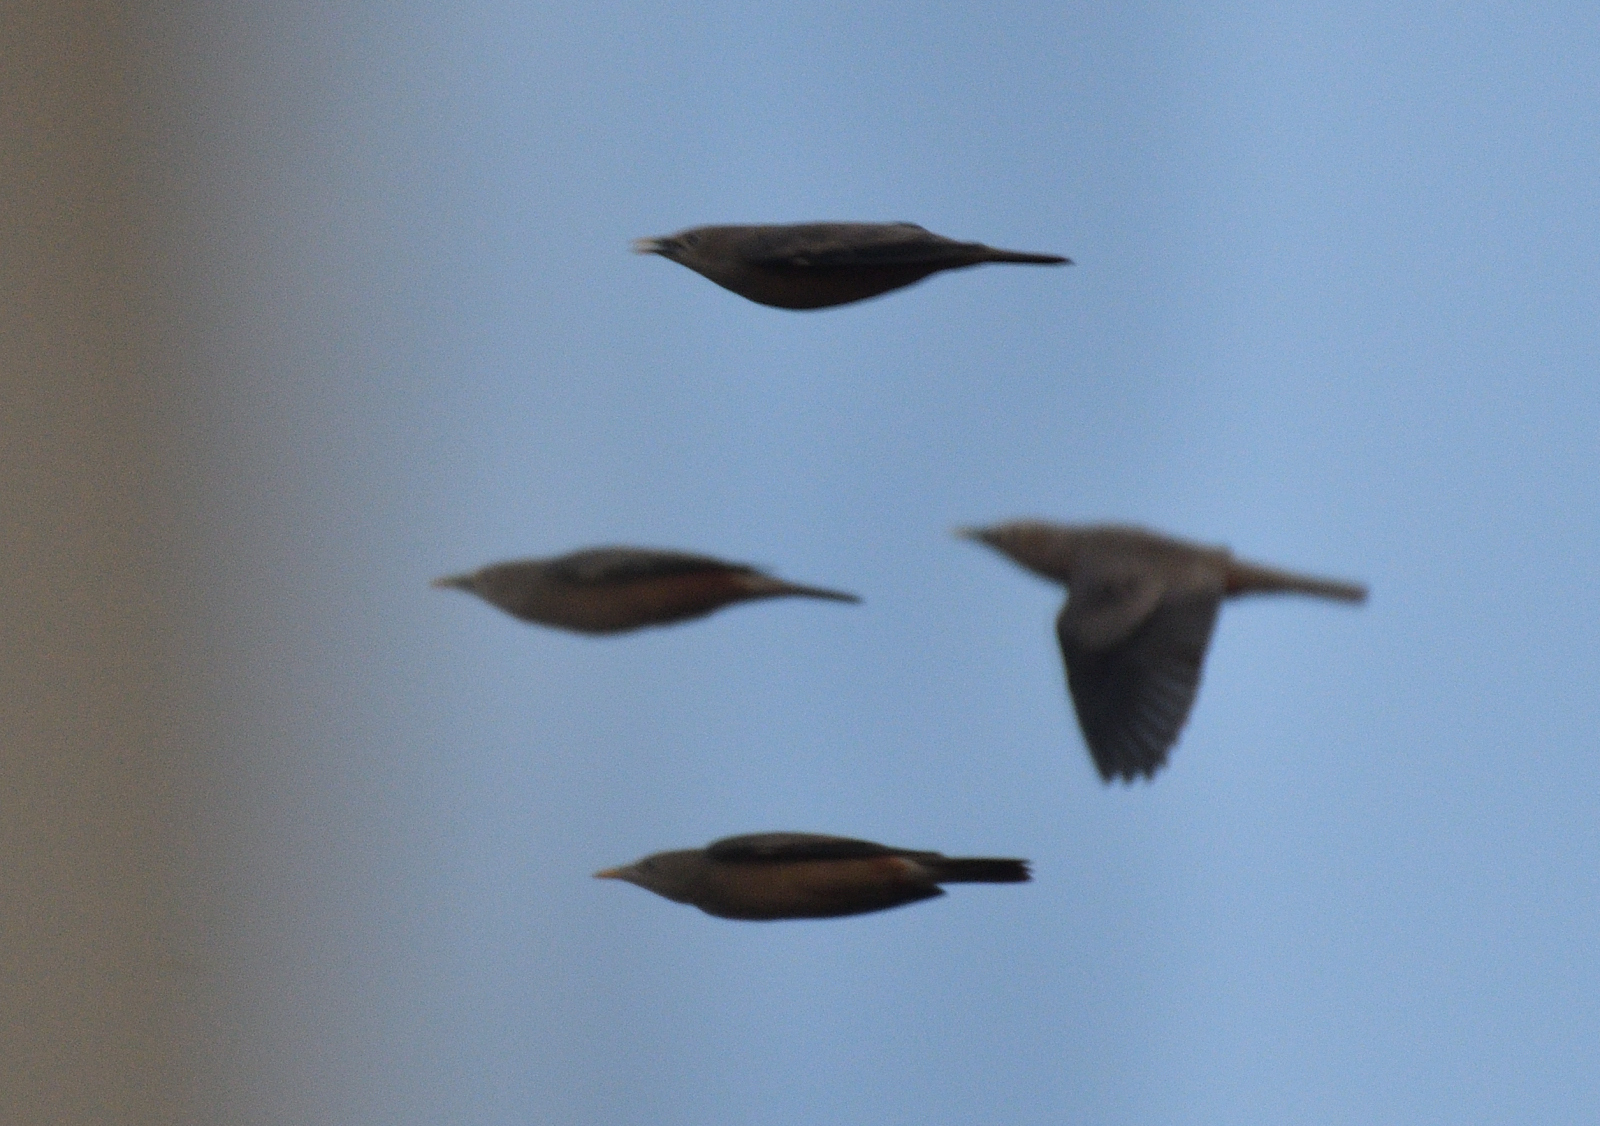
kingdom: Animalia
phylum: Chordata
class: Aves
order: Passeriformes
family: Sturnidae
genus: Sturnia
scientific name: Sturnia malabarica
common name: Chestnut-tailed starling
